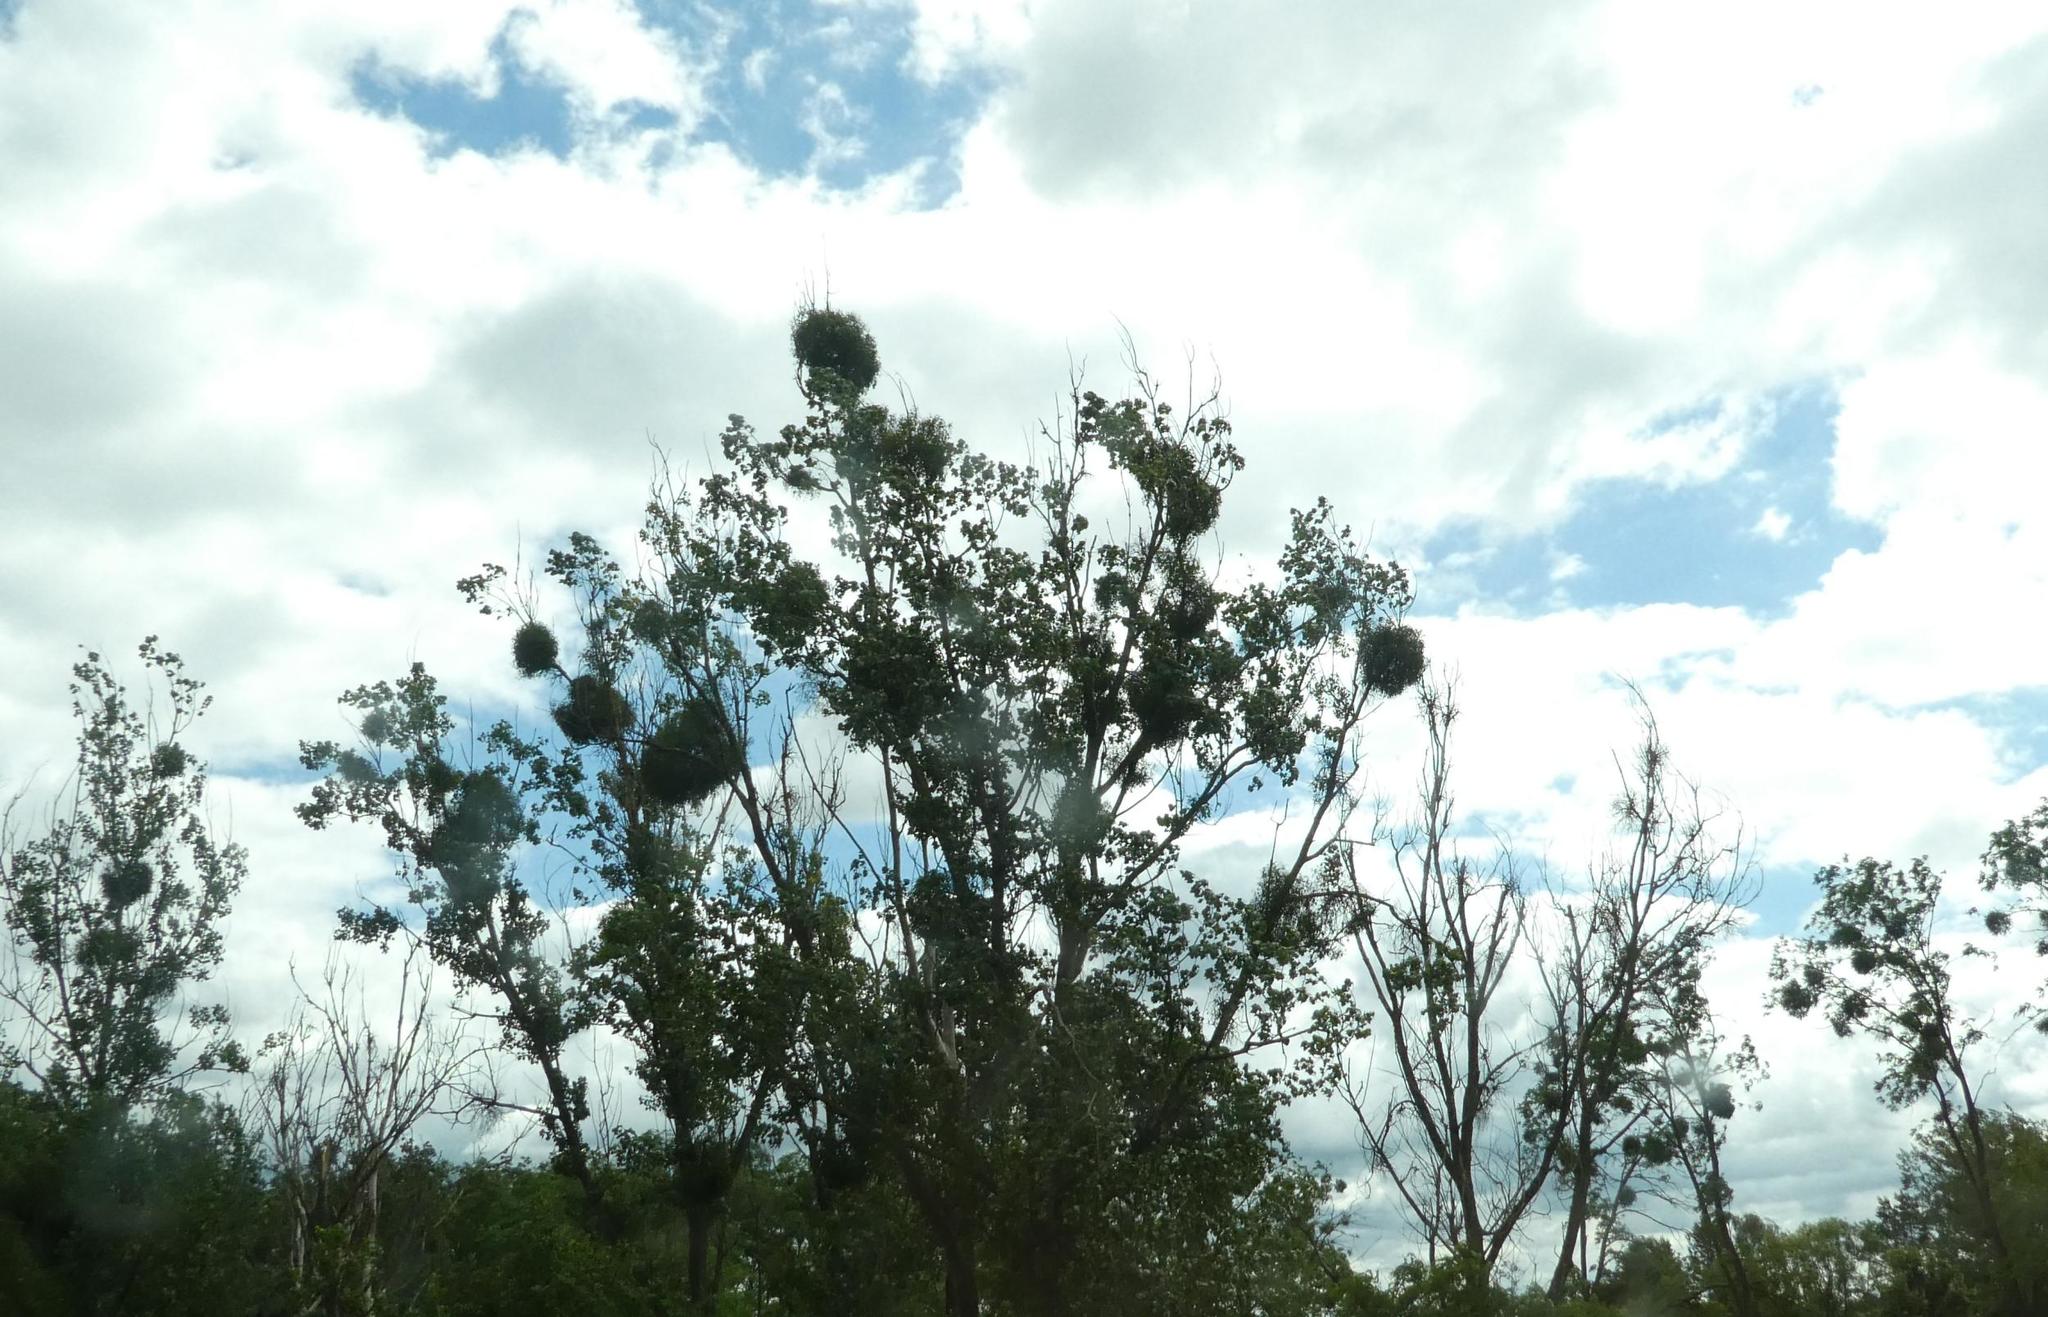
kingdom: Plantae
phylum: Tracheophyta
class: Magnoliopsida
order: Santalales
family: Viscaceae
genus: Viscum
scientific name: Viscum album
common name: Mistletoe
